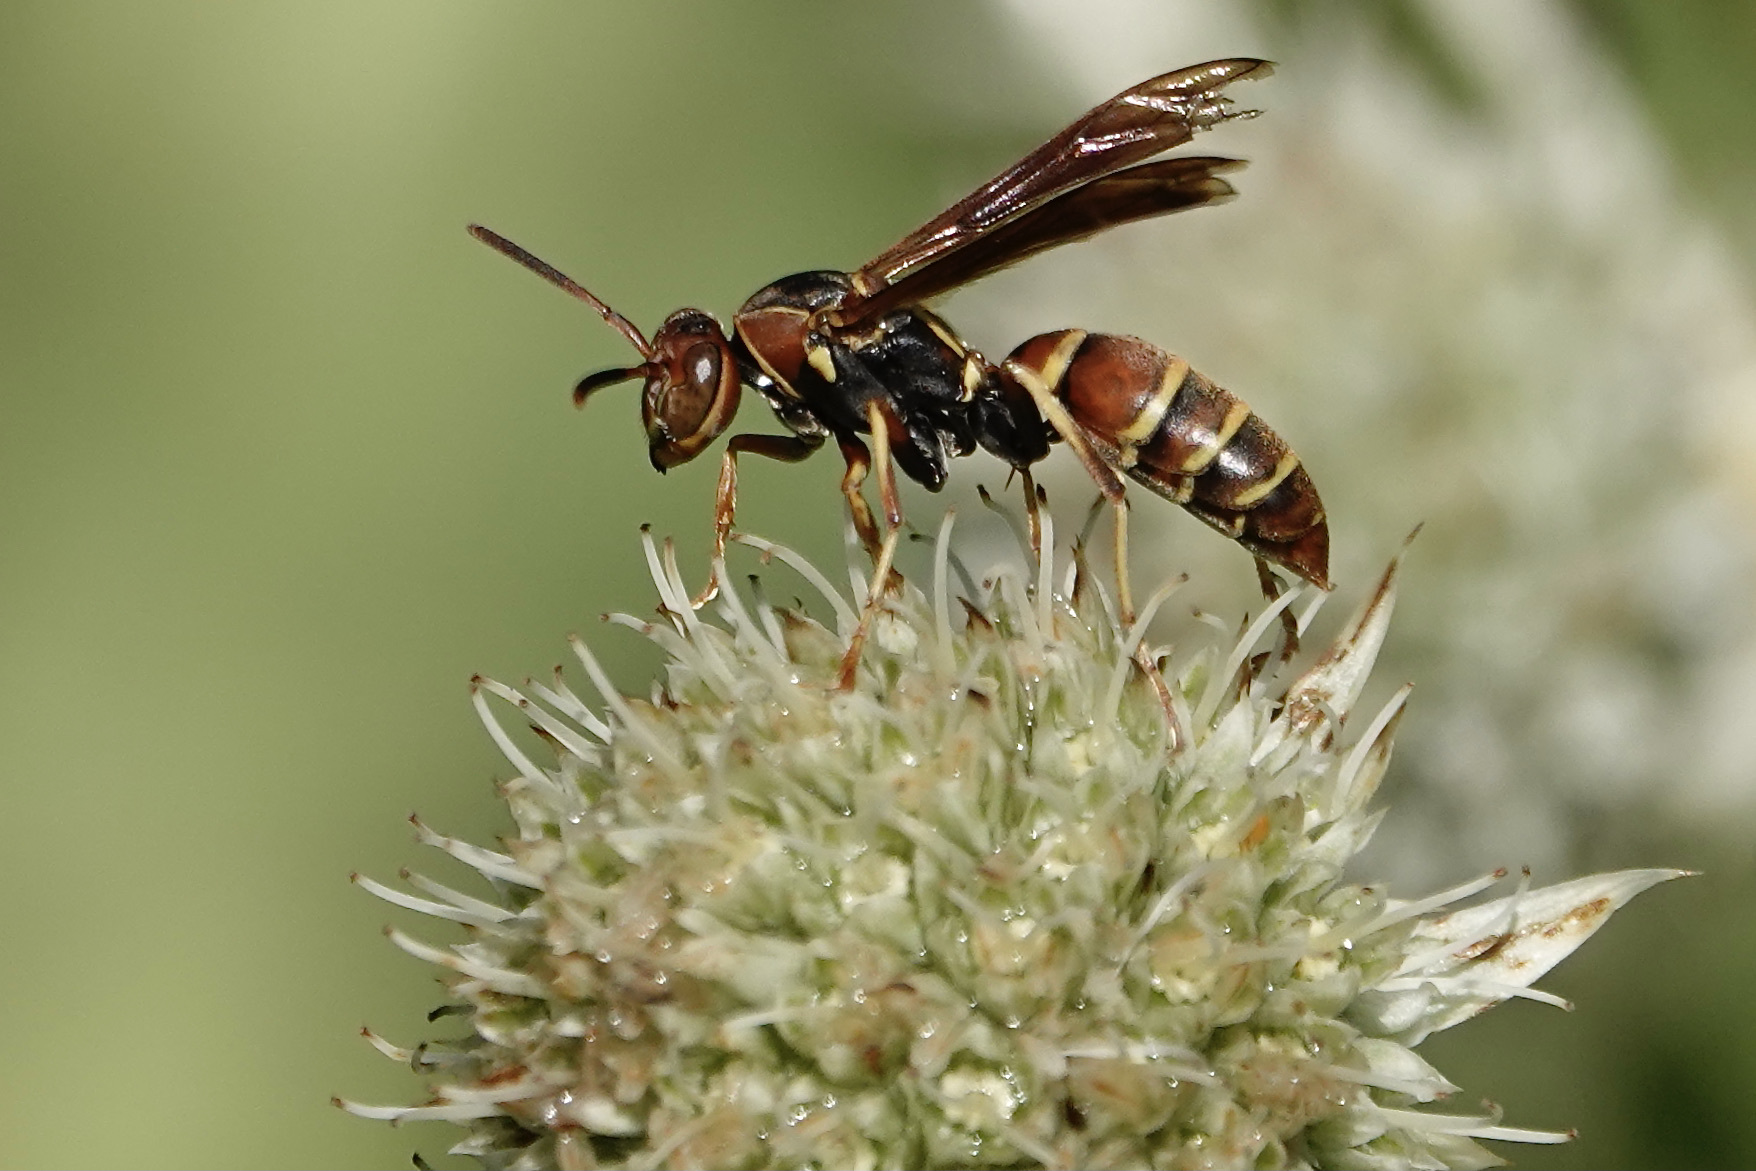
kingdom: Animalia
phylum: Arthropoda
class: Insecta
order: Hymenoptera
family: Eumenidae
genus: Polistes
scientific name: Polistes dorsalis
